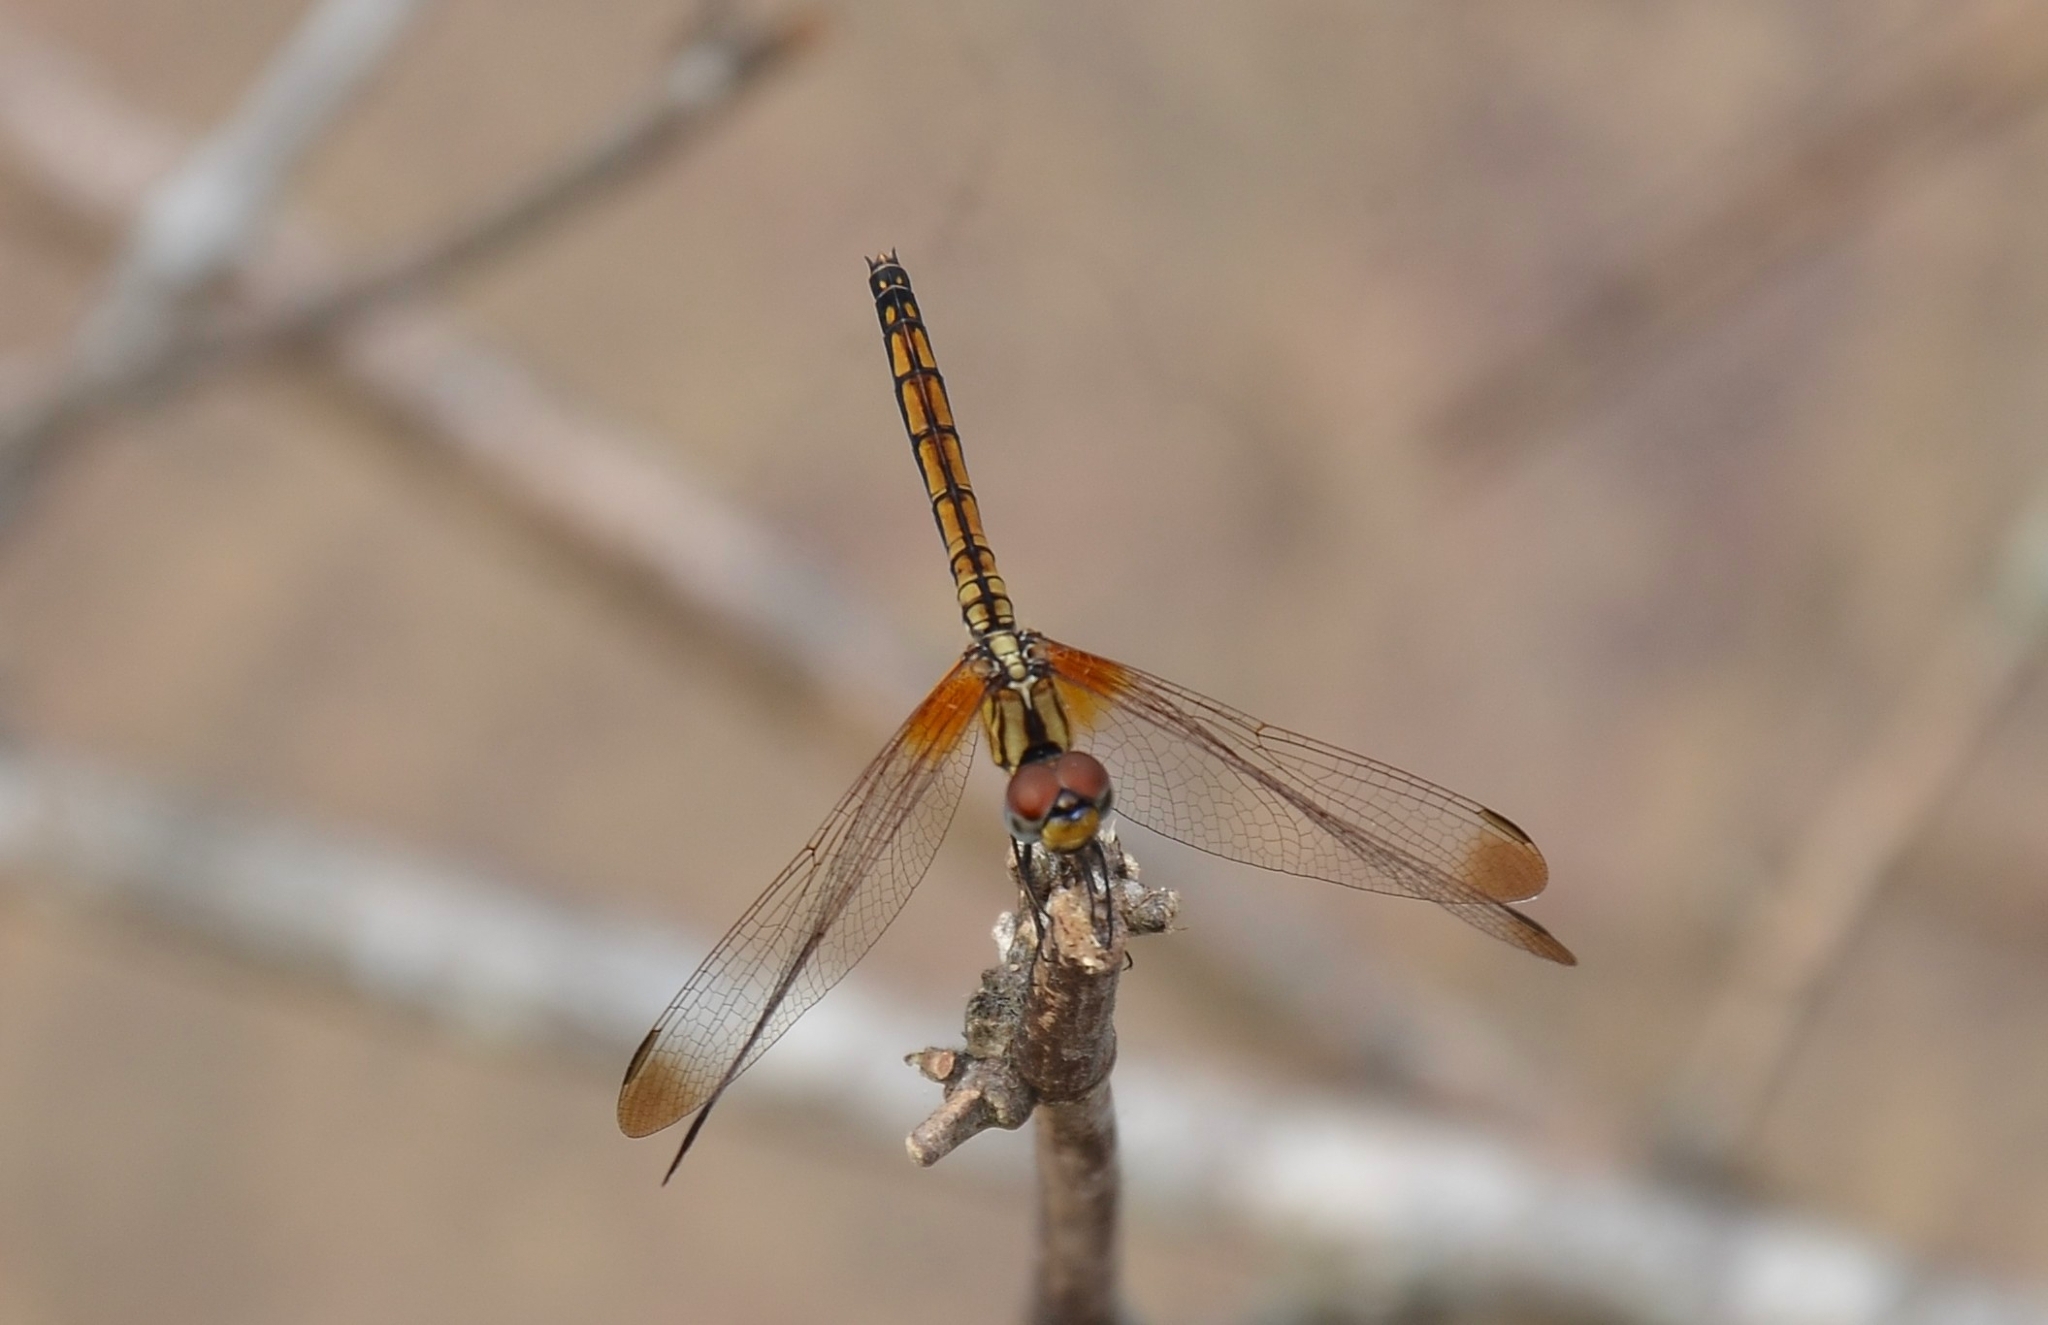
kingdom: Animalia
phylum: Arthropoda
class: Insecta
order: Odonata
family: Libellulidae
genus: Trithemis
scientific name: Trithemis aurora
